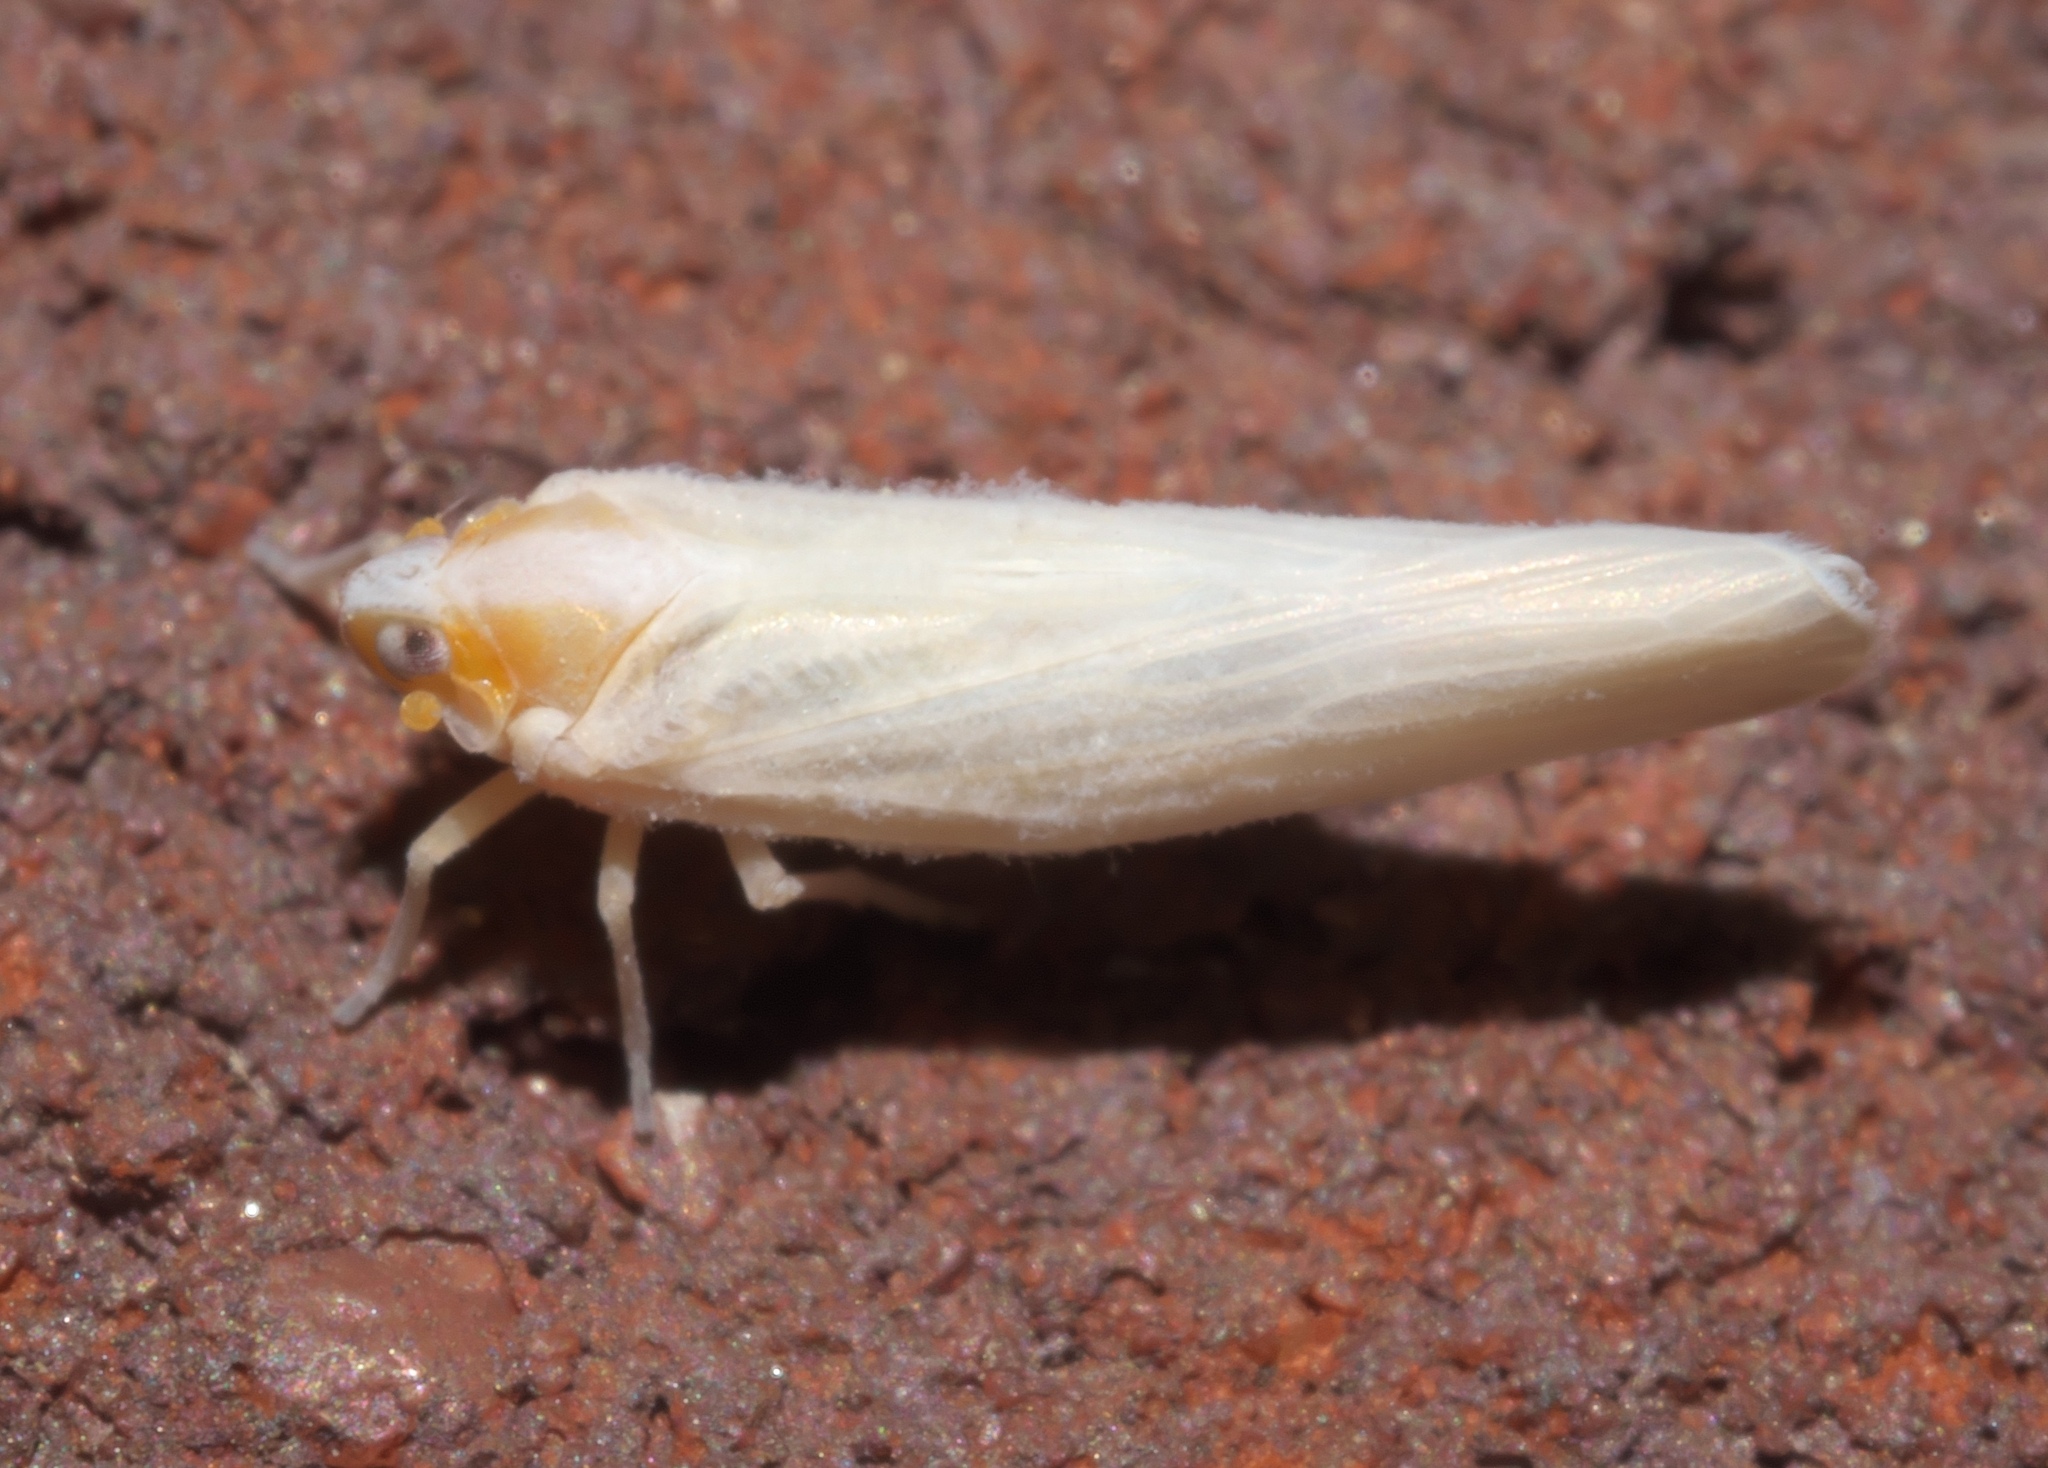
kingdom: Animalia
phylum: Arthropoda
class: Insecta
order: Hemiptera
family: Derbidae
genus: Neocenchrea
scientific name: Neocenchrea heidemanni
